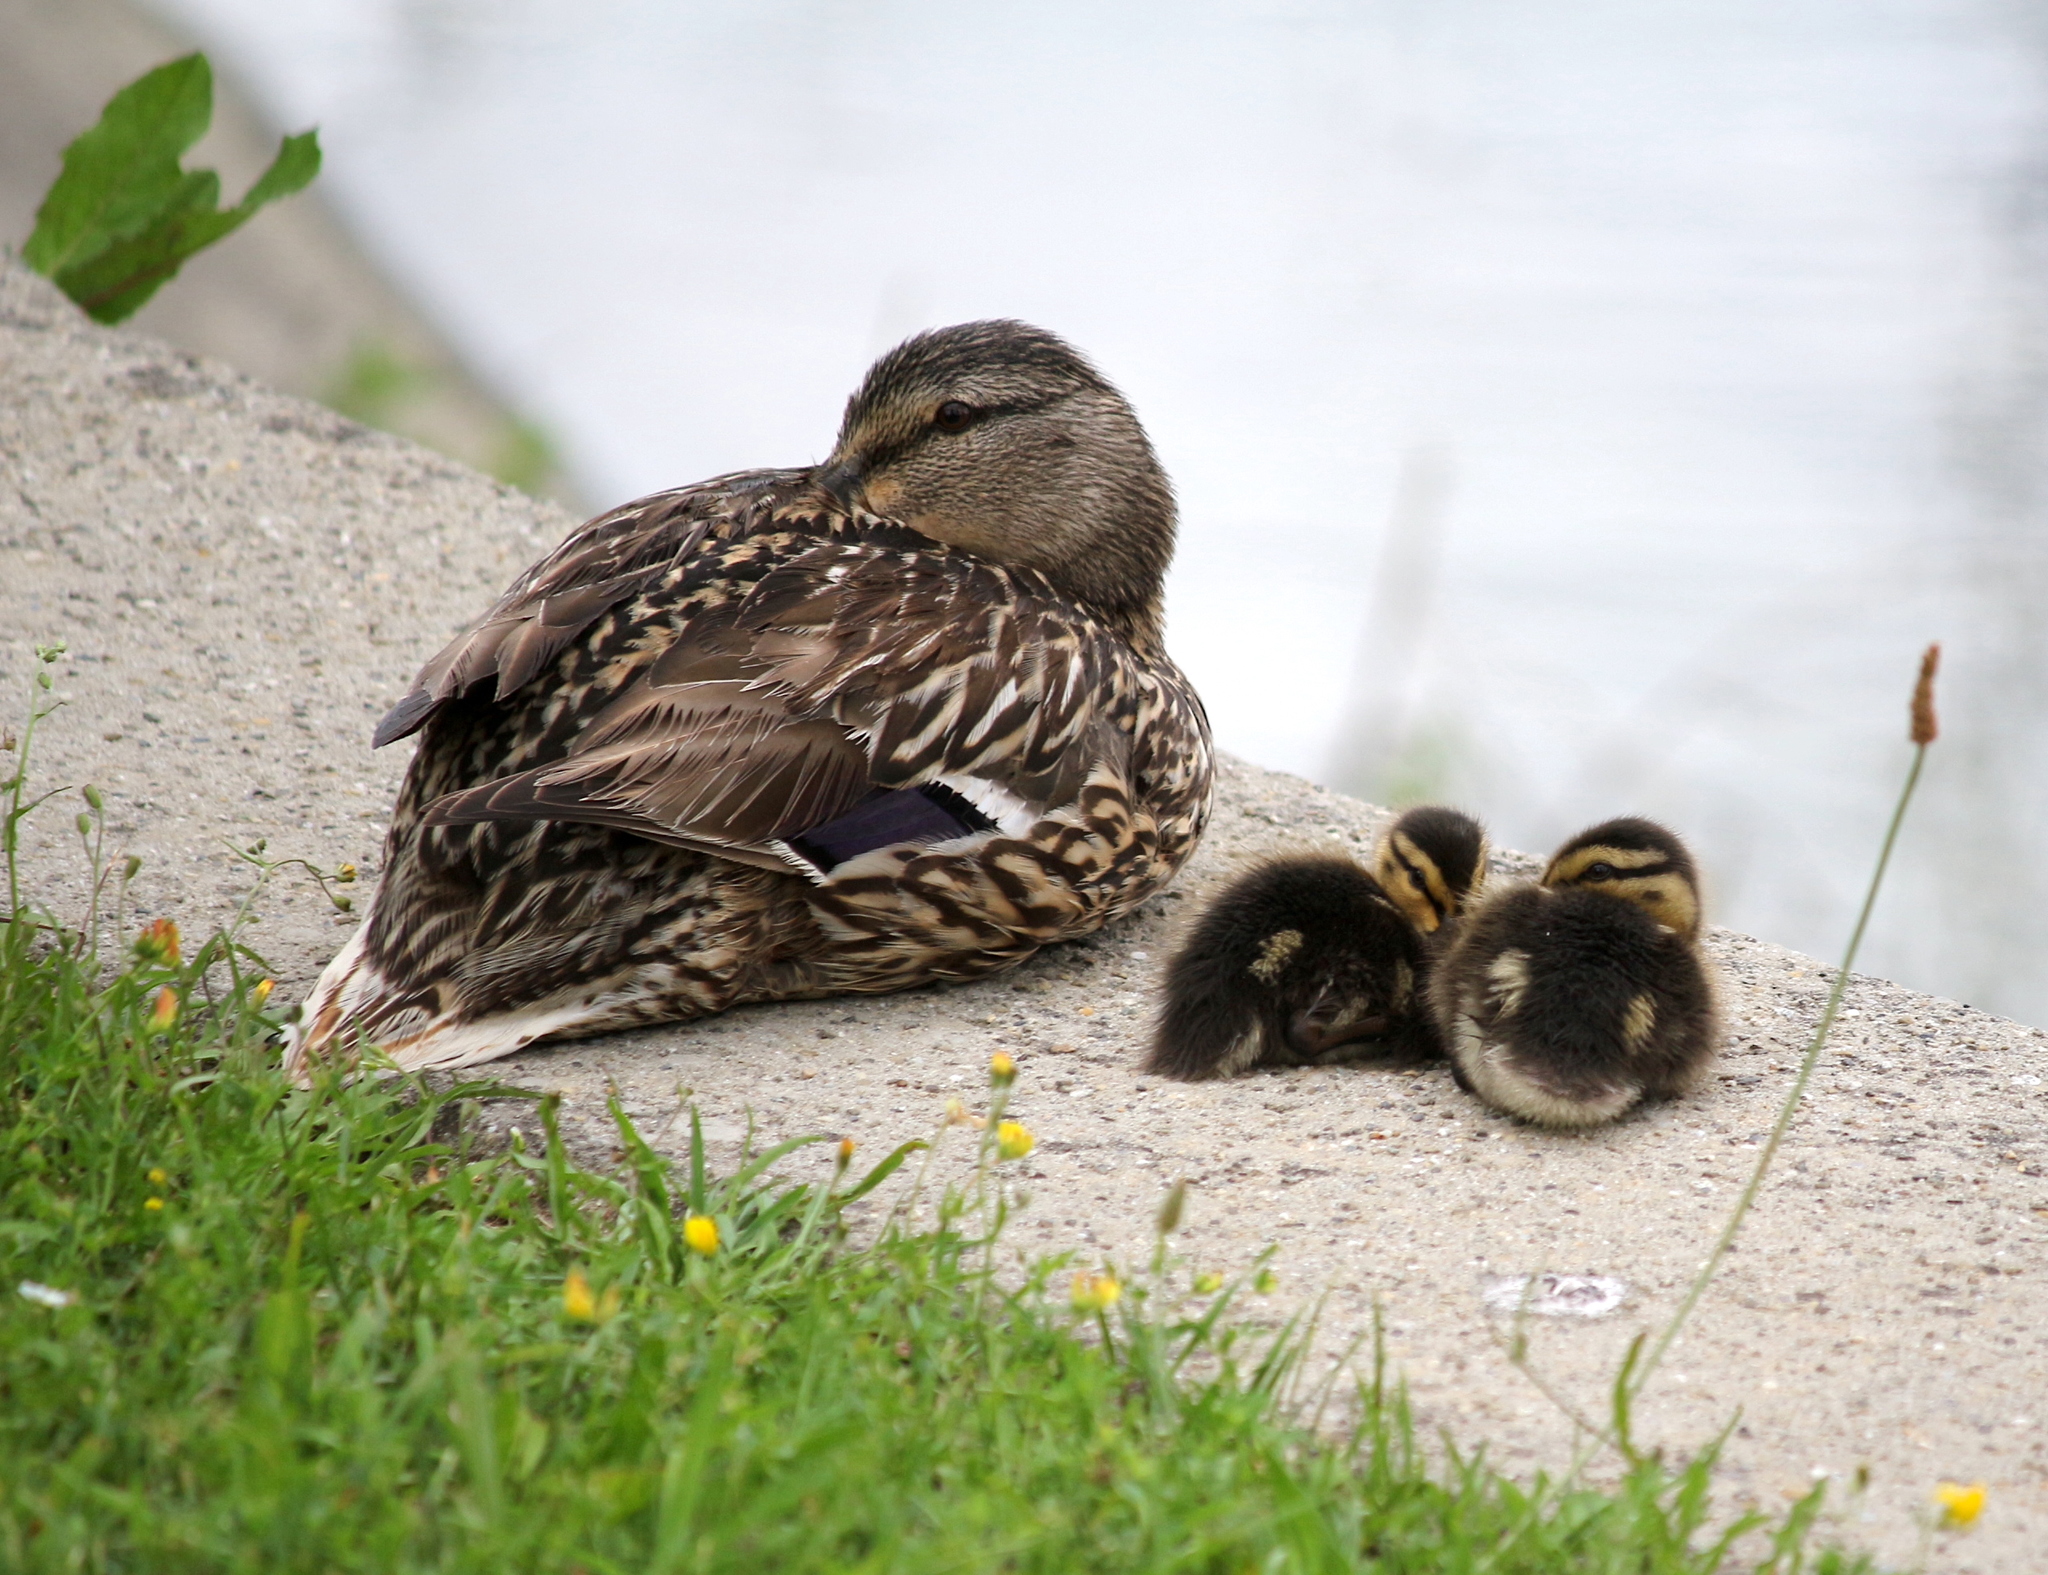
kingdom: Animalia
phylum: Chordata
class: Aves
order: Anseriformes
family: Anatidae
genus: Anas
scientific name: Anas platyrhynchos
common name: Mallard
